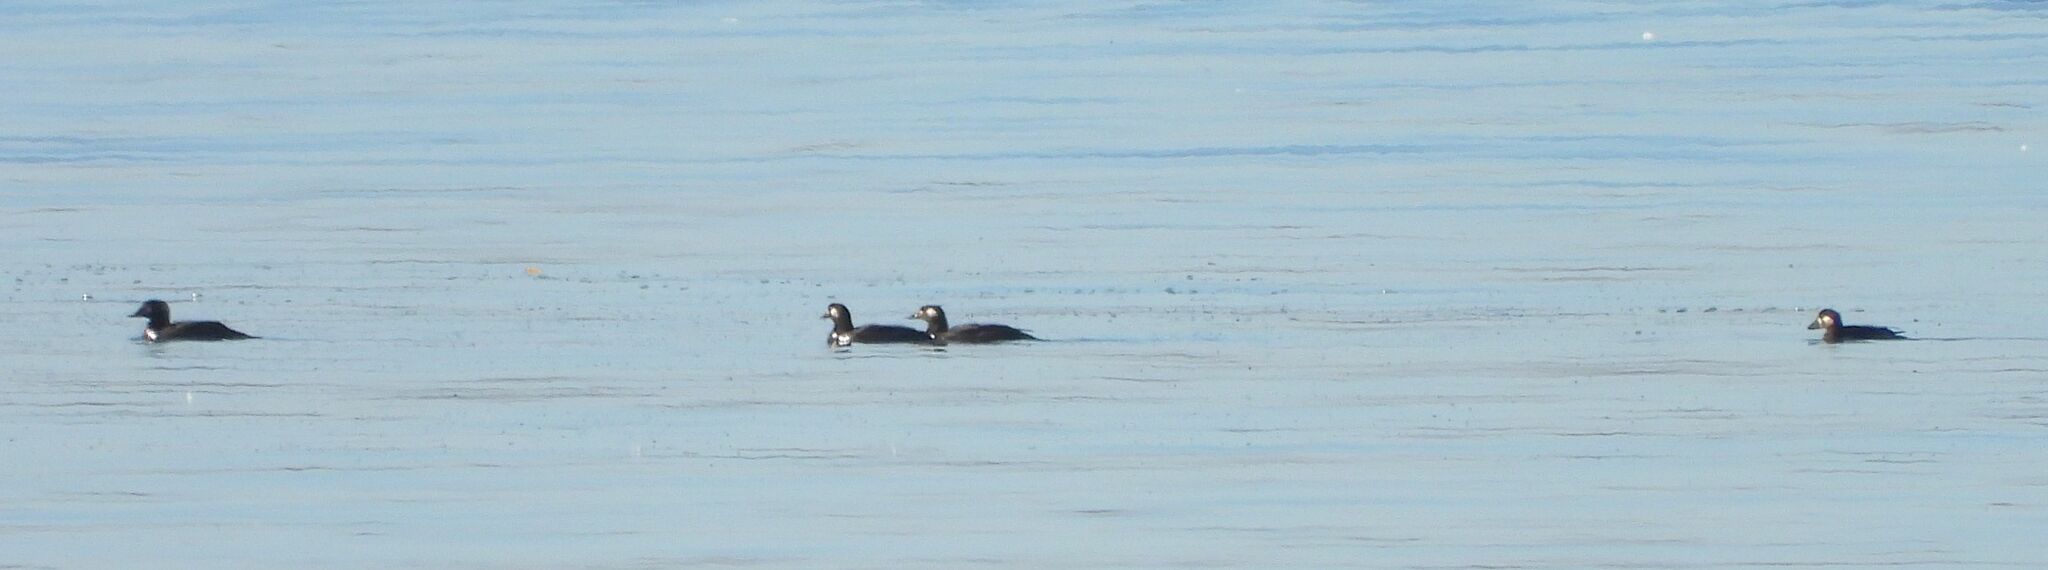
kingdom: Animalia
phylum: Chordata
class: Aves
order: Anseriformes
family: Anatidae
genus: Melanitta
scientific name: Melanitta deglandi
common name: White-winged scoter
